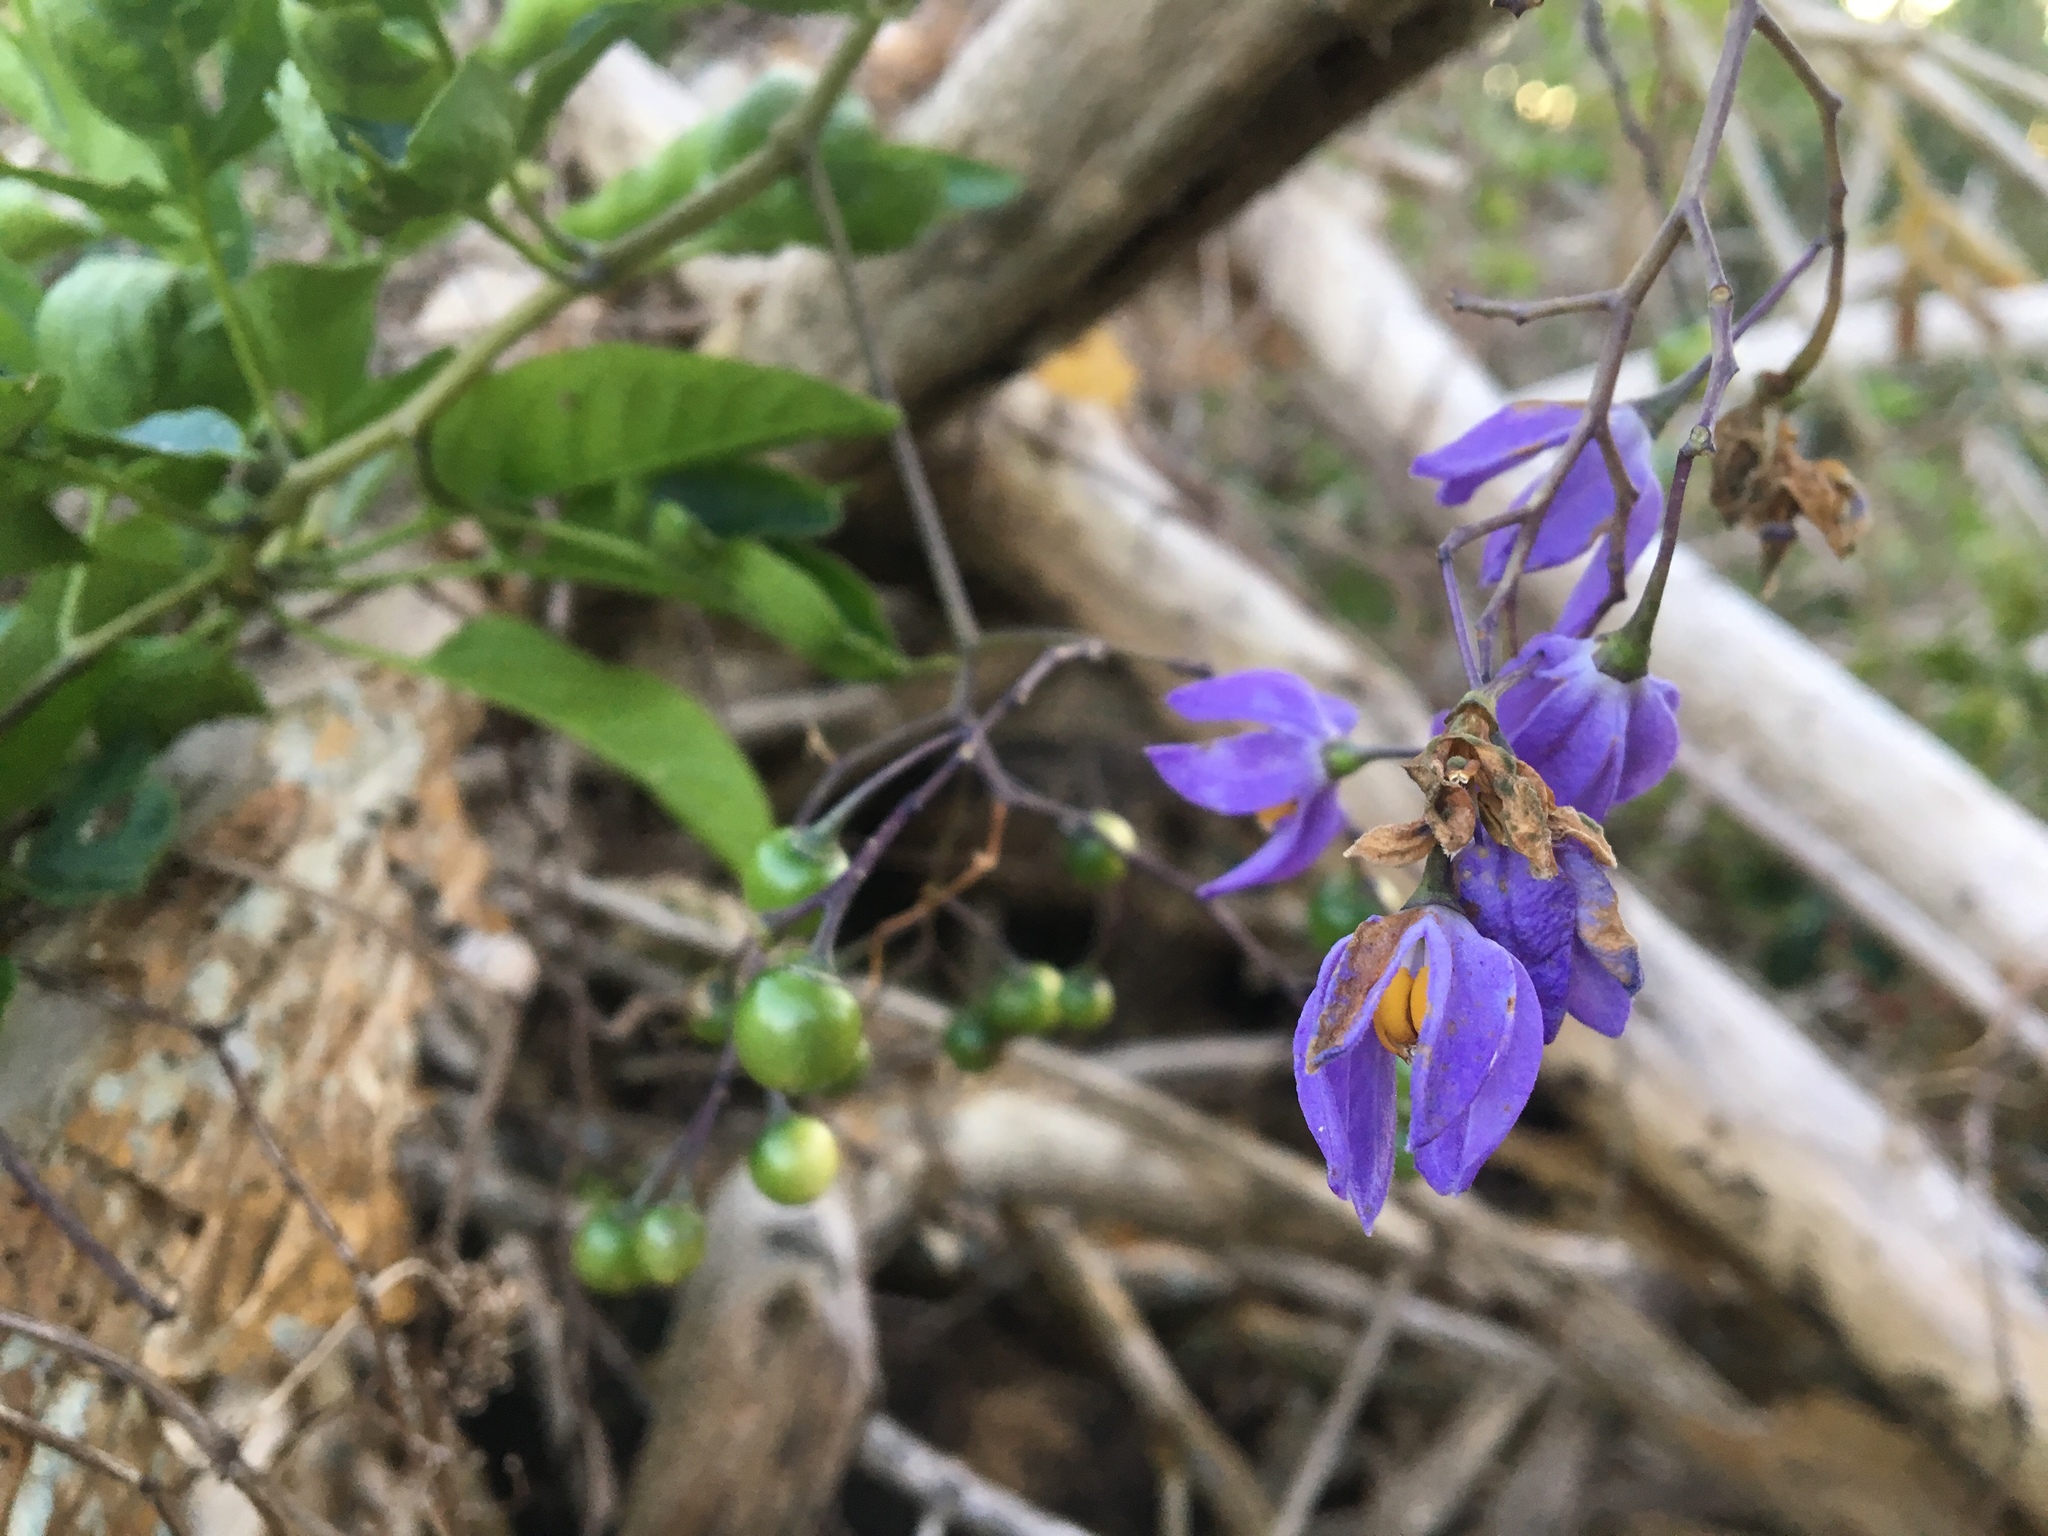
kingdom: Plantae
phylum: Tracheophyta
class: Magnoliopsida
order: Solanales
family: Solanaceae
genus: Solanum
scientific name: Solanum seaforthianum
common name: Brazilian nightshade
